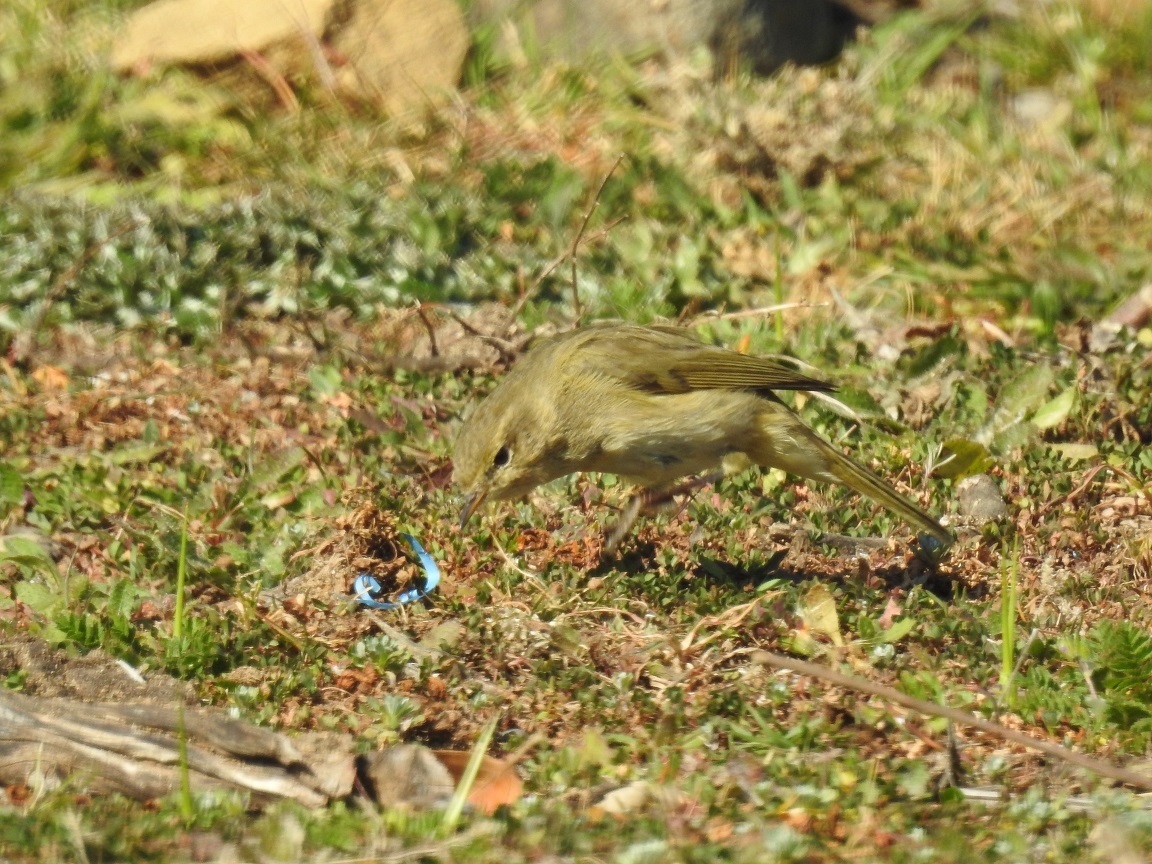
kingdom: Animalia
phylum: Chordata
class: Aves
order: Passeriformes
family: Phylloscopidae
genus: Phylloscopus
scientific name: Phylloscopus collybita
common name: Common chiffchaff
